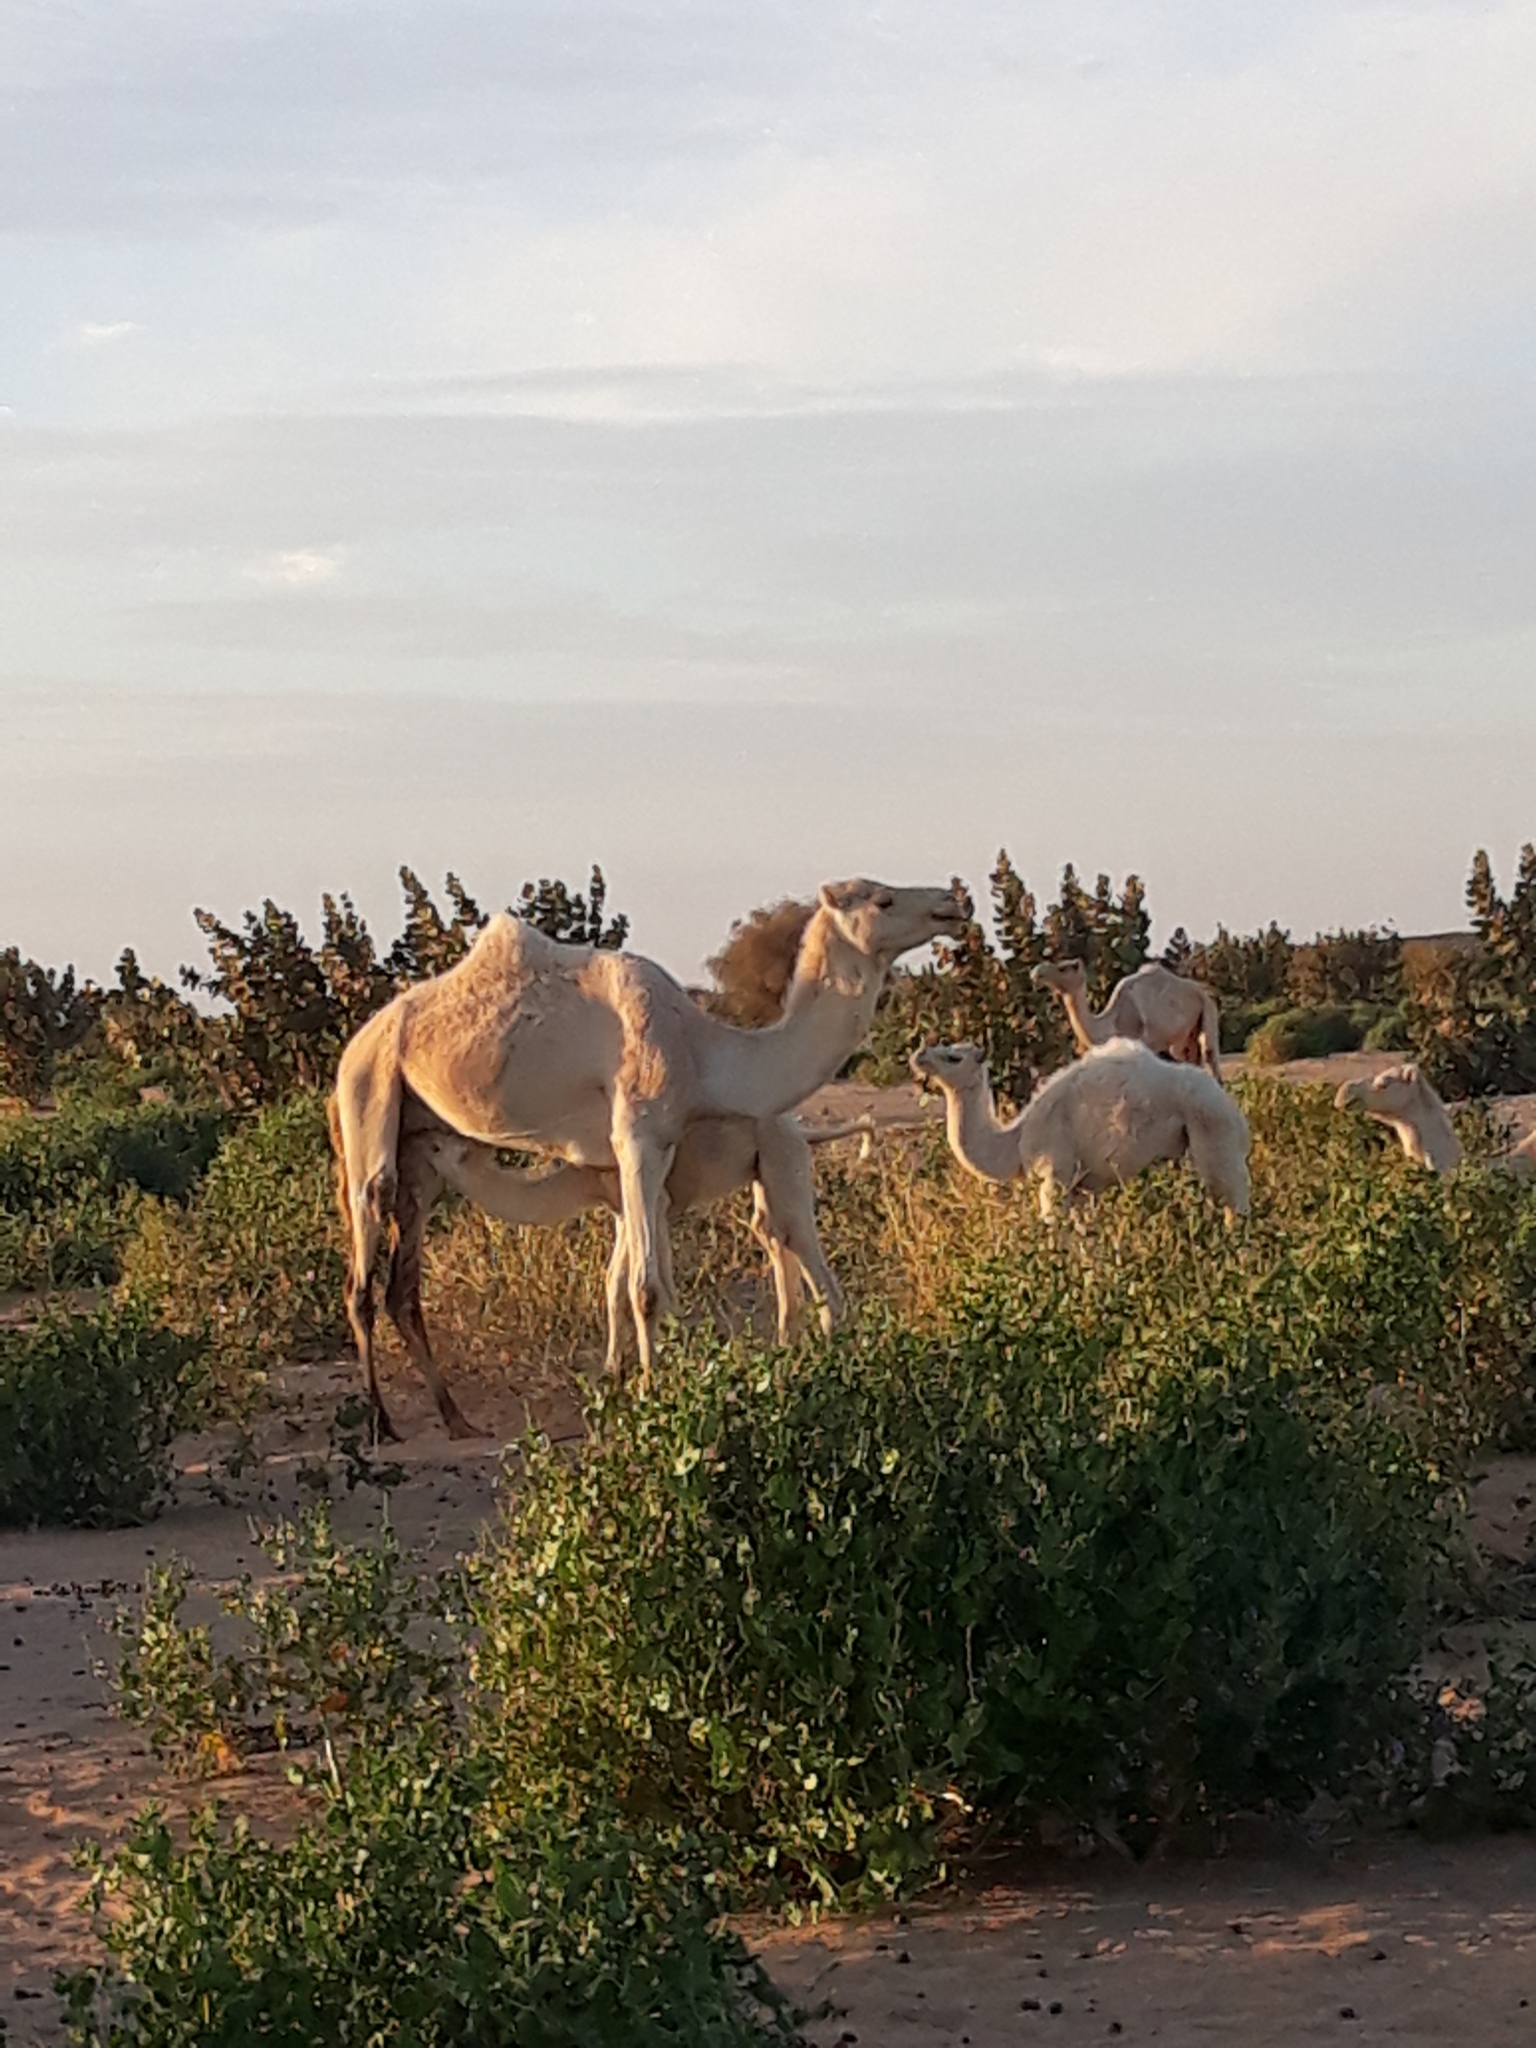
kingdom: Animalia
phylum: Chordata
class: Mammalia
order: Artiodactyla
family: Camelidae
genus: Camelus
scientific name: Camelus dromedarius
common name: One-humped camel
